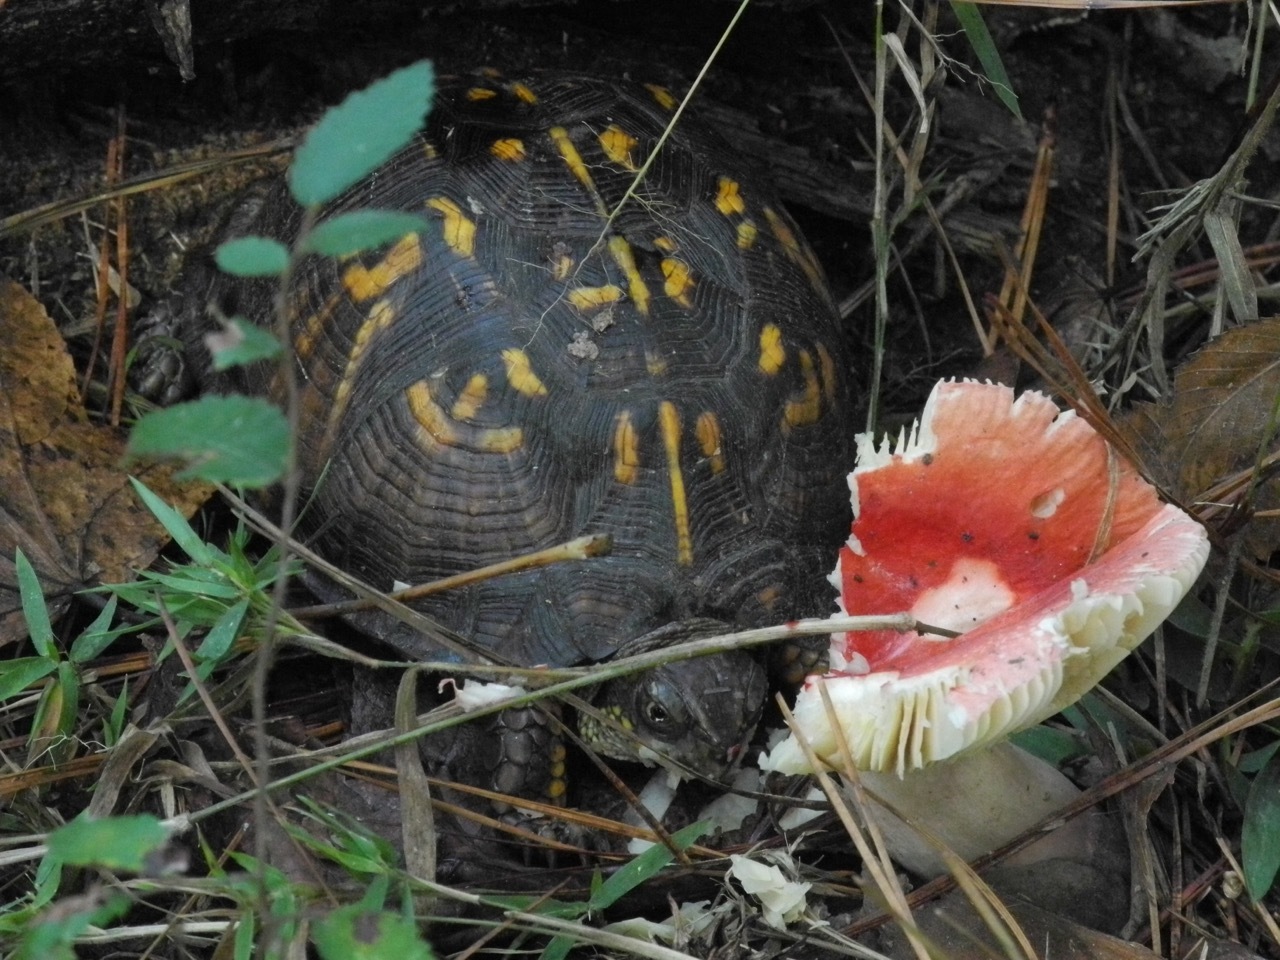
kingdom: Animalia
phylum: Chordata
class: Testudines
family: Emydidae
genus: Terrapene
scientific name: Terrapene carolina
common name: Common box turtle
